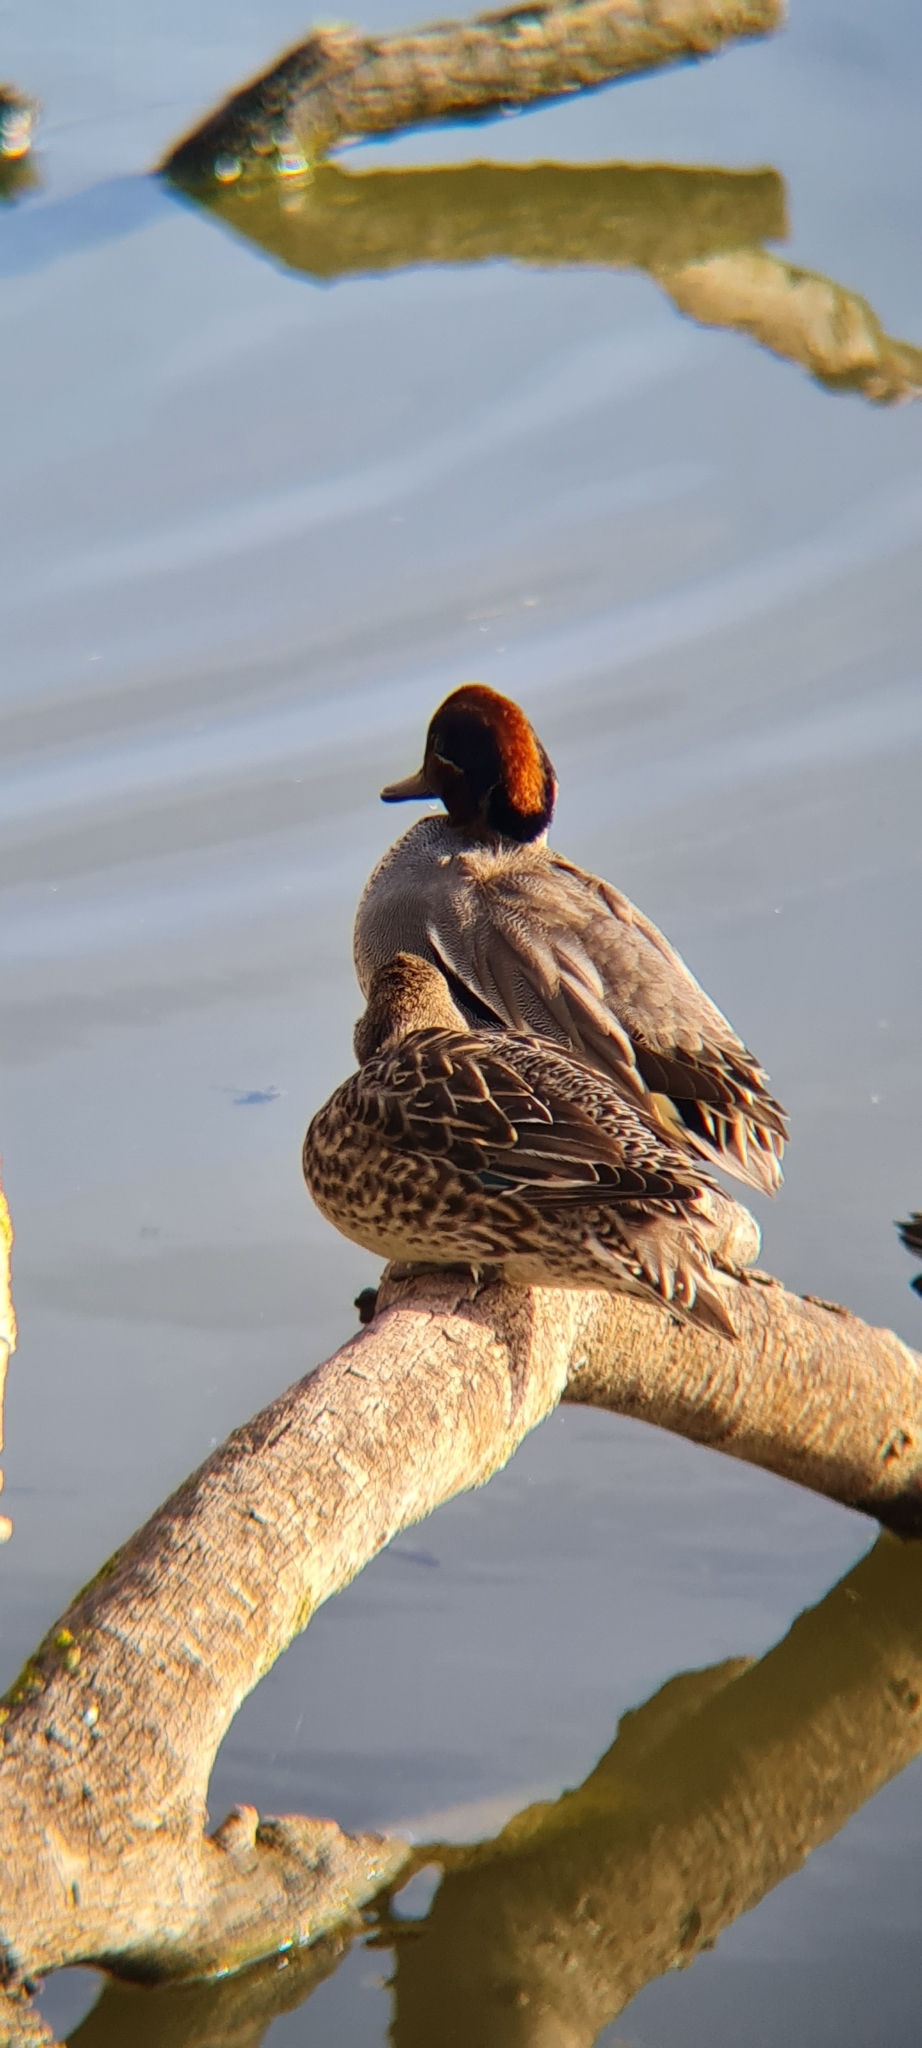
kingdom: Animalia
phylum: Chordata
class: Aves
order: Anseriformes
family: Anatidae
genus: Anas
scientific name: Anas crecca
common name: Eurasian teal
